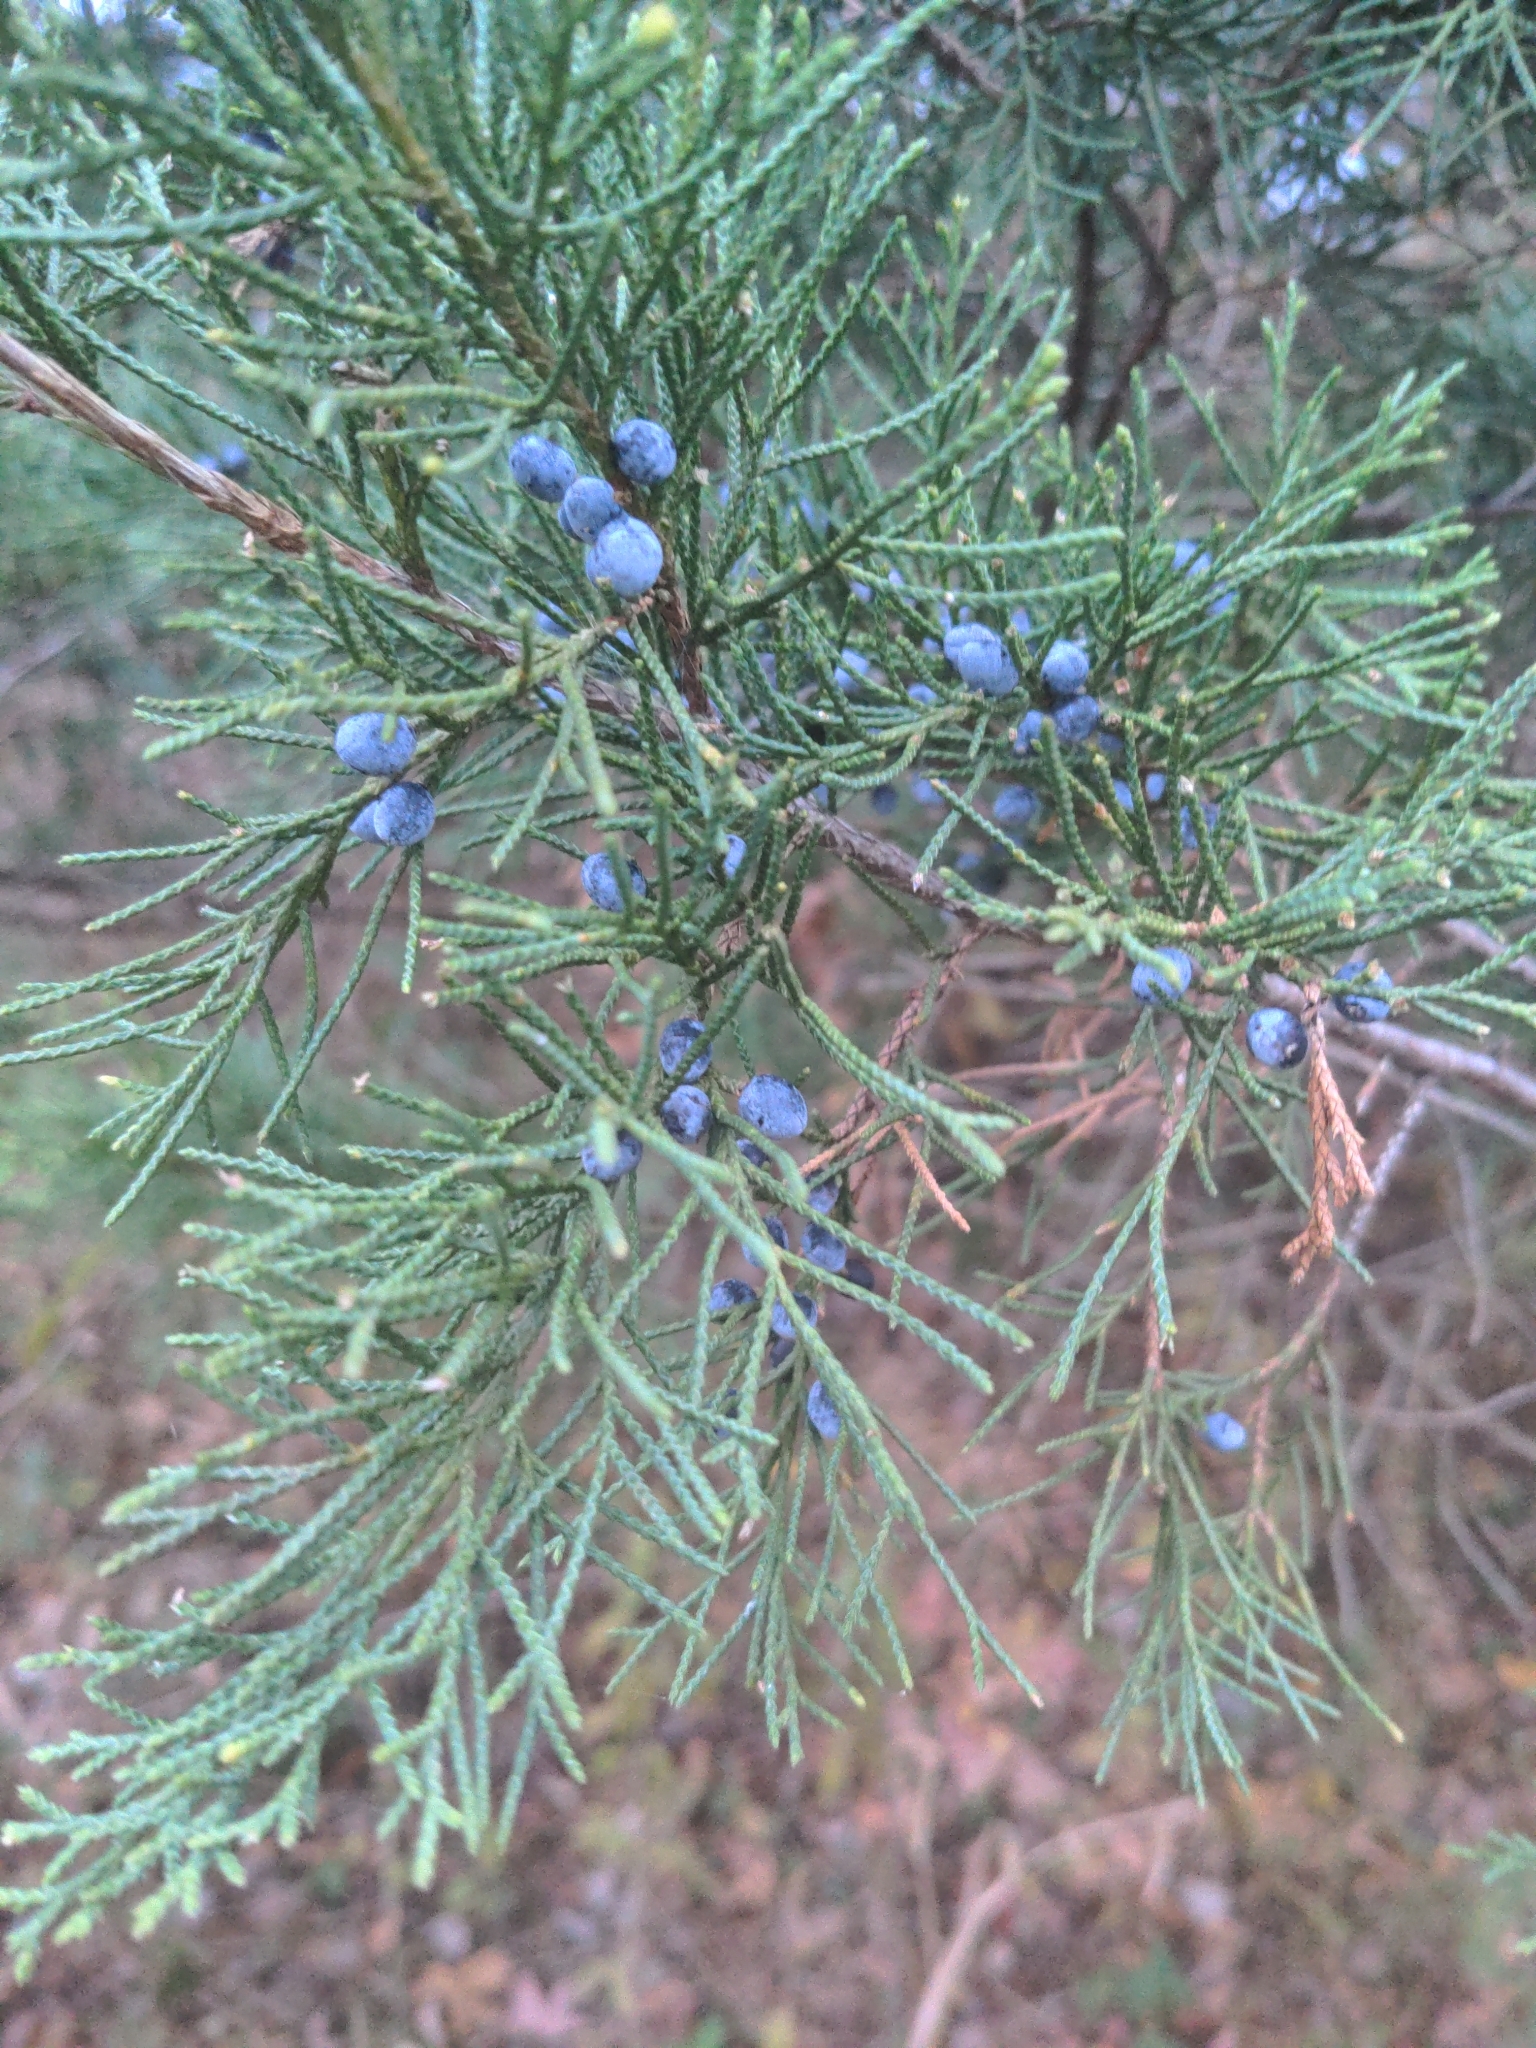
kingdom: Plantae
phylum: Tracheophyta
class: Pinopsida
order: Pinales
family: Cupressaceae
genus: Juniperus
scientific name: Juniperus virginiana
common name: Red juniper
